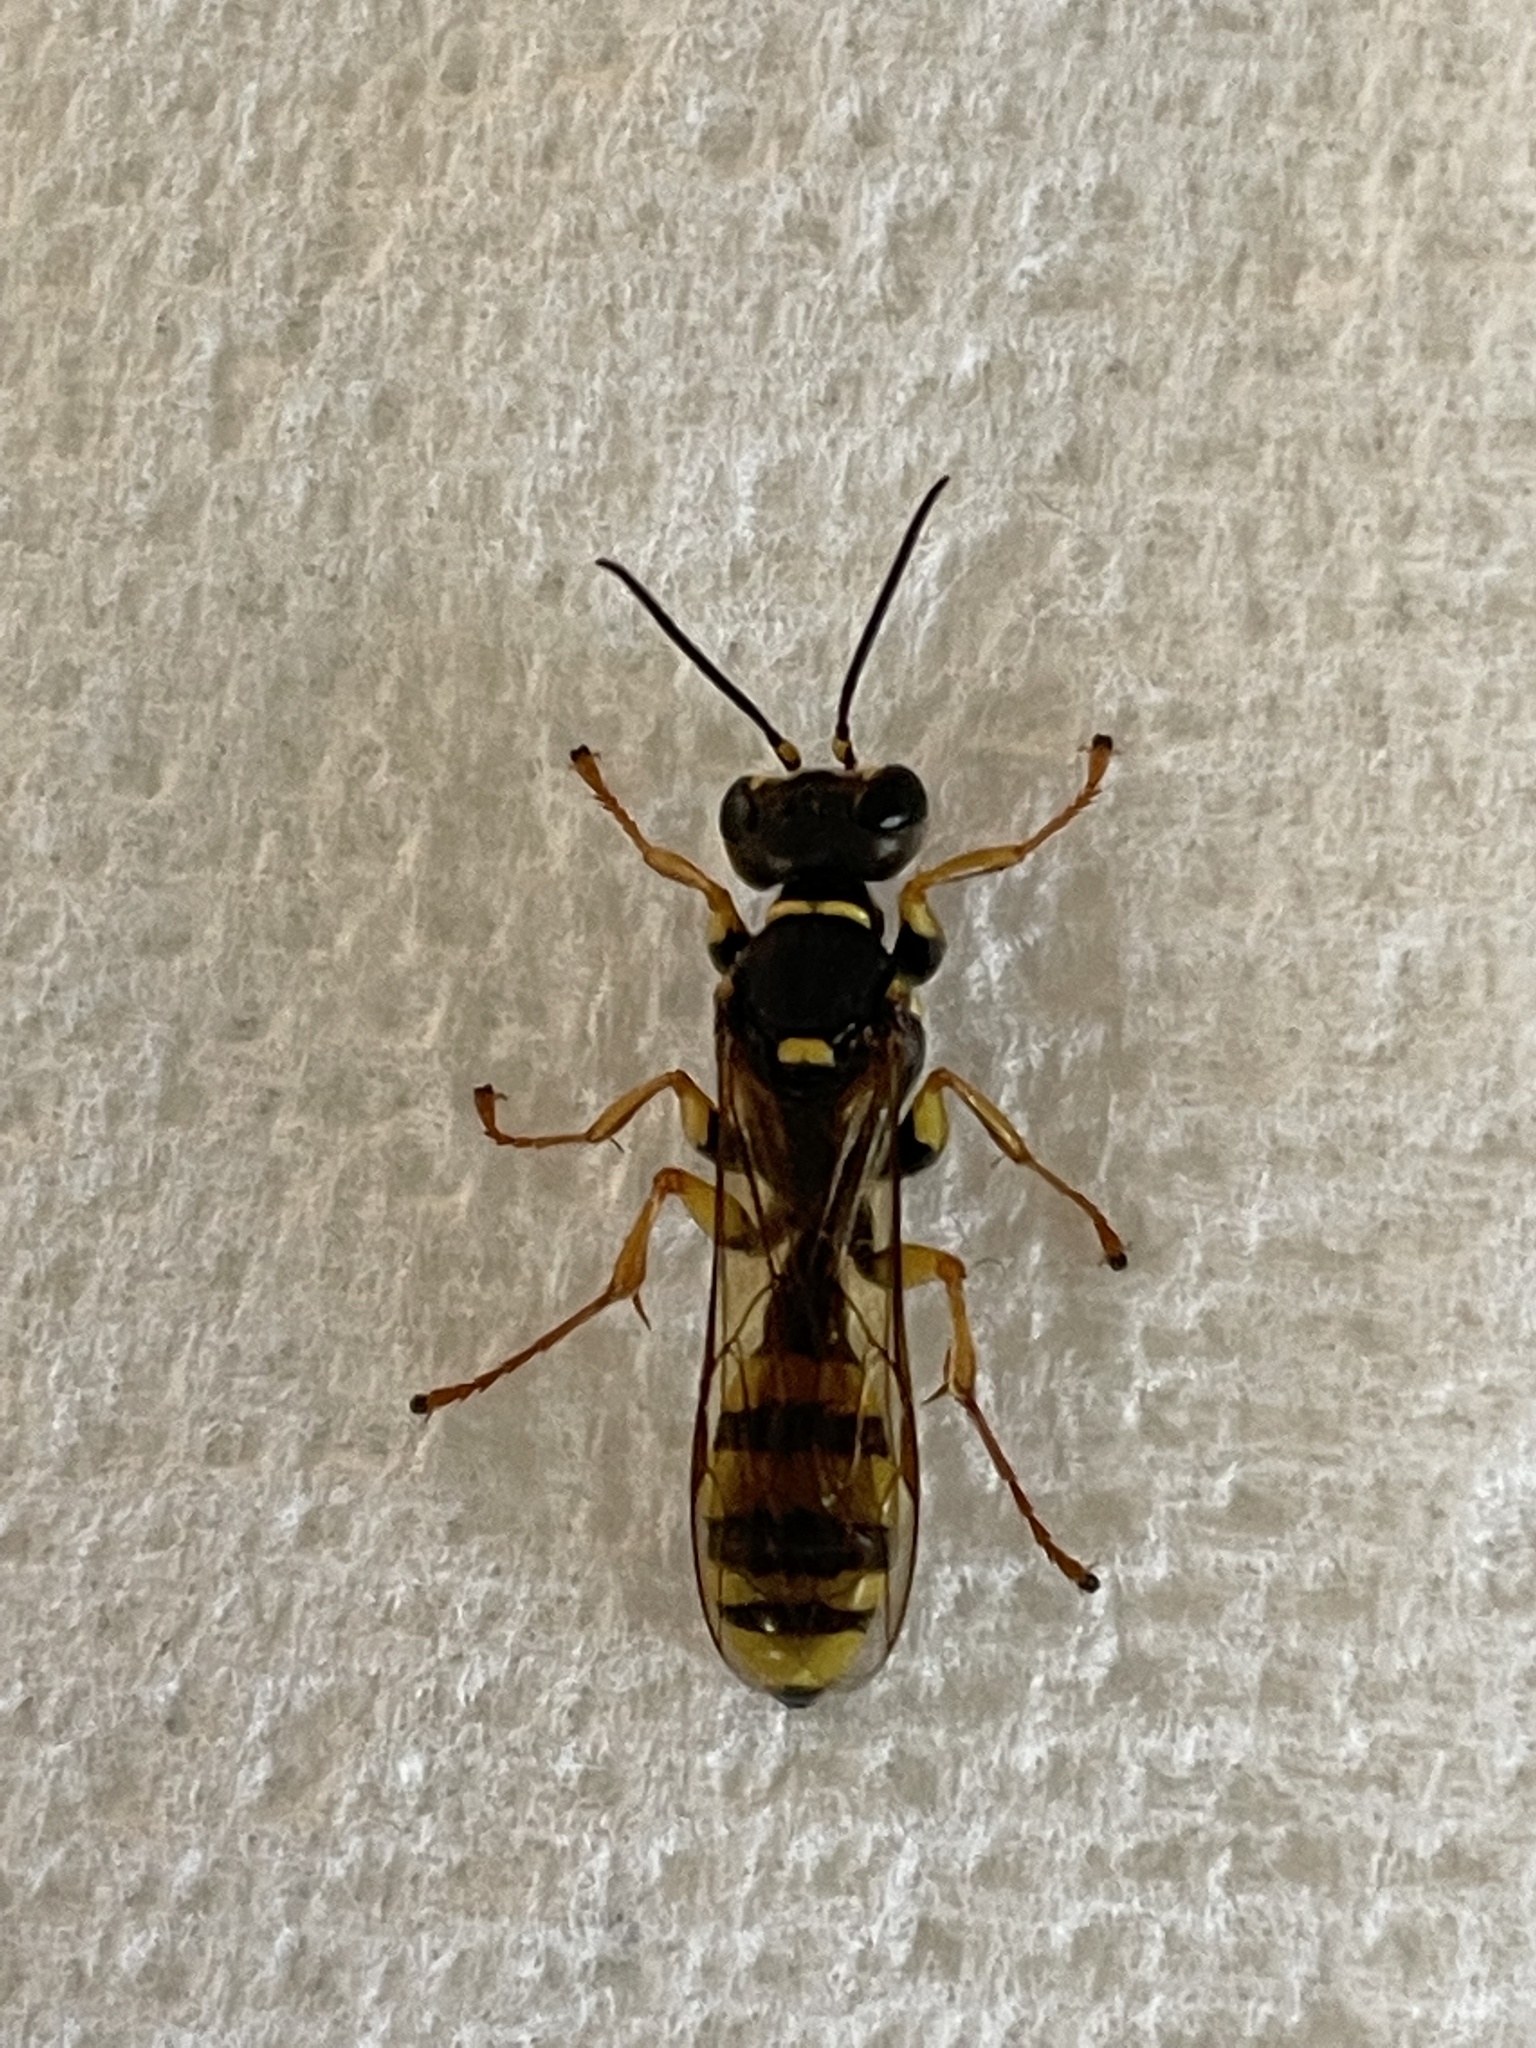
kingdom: Animalia
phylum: Arthropoda
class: Insecta
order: Hymenoptera
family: Crabronidae
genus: Mellinus
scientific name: Mellinus arvensis
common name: Field digger wasp
